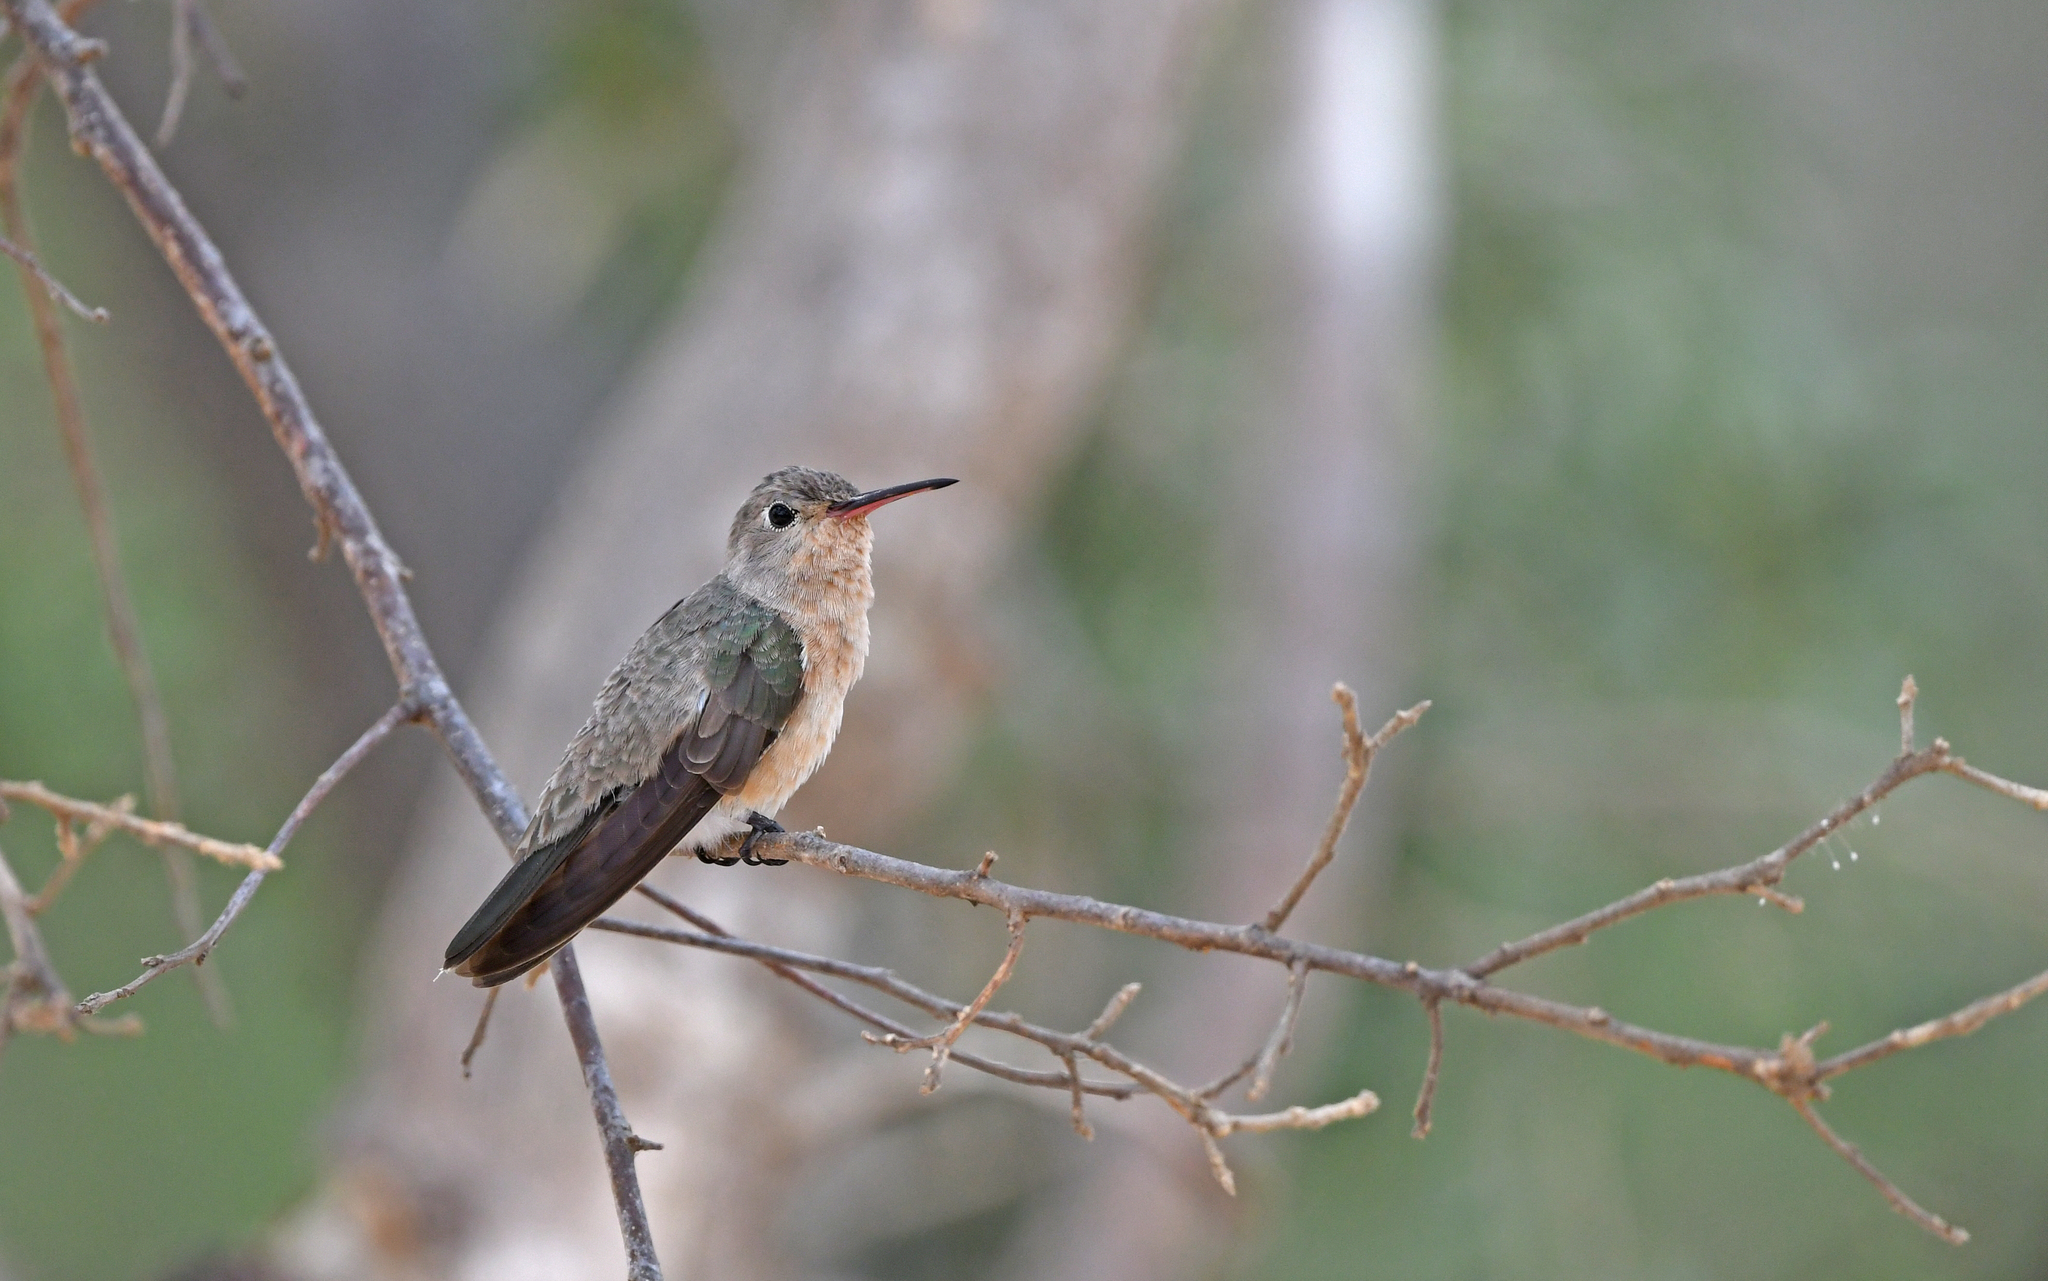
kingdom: Animalia
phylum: Chordata
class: Aves
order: Apodiformes
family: Trochilidae
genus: Leucippus
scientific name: Leucippus fallax
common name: Buffy hummingbird
